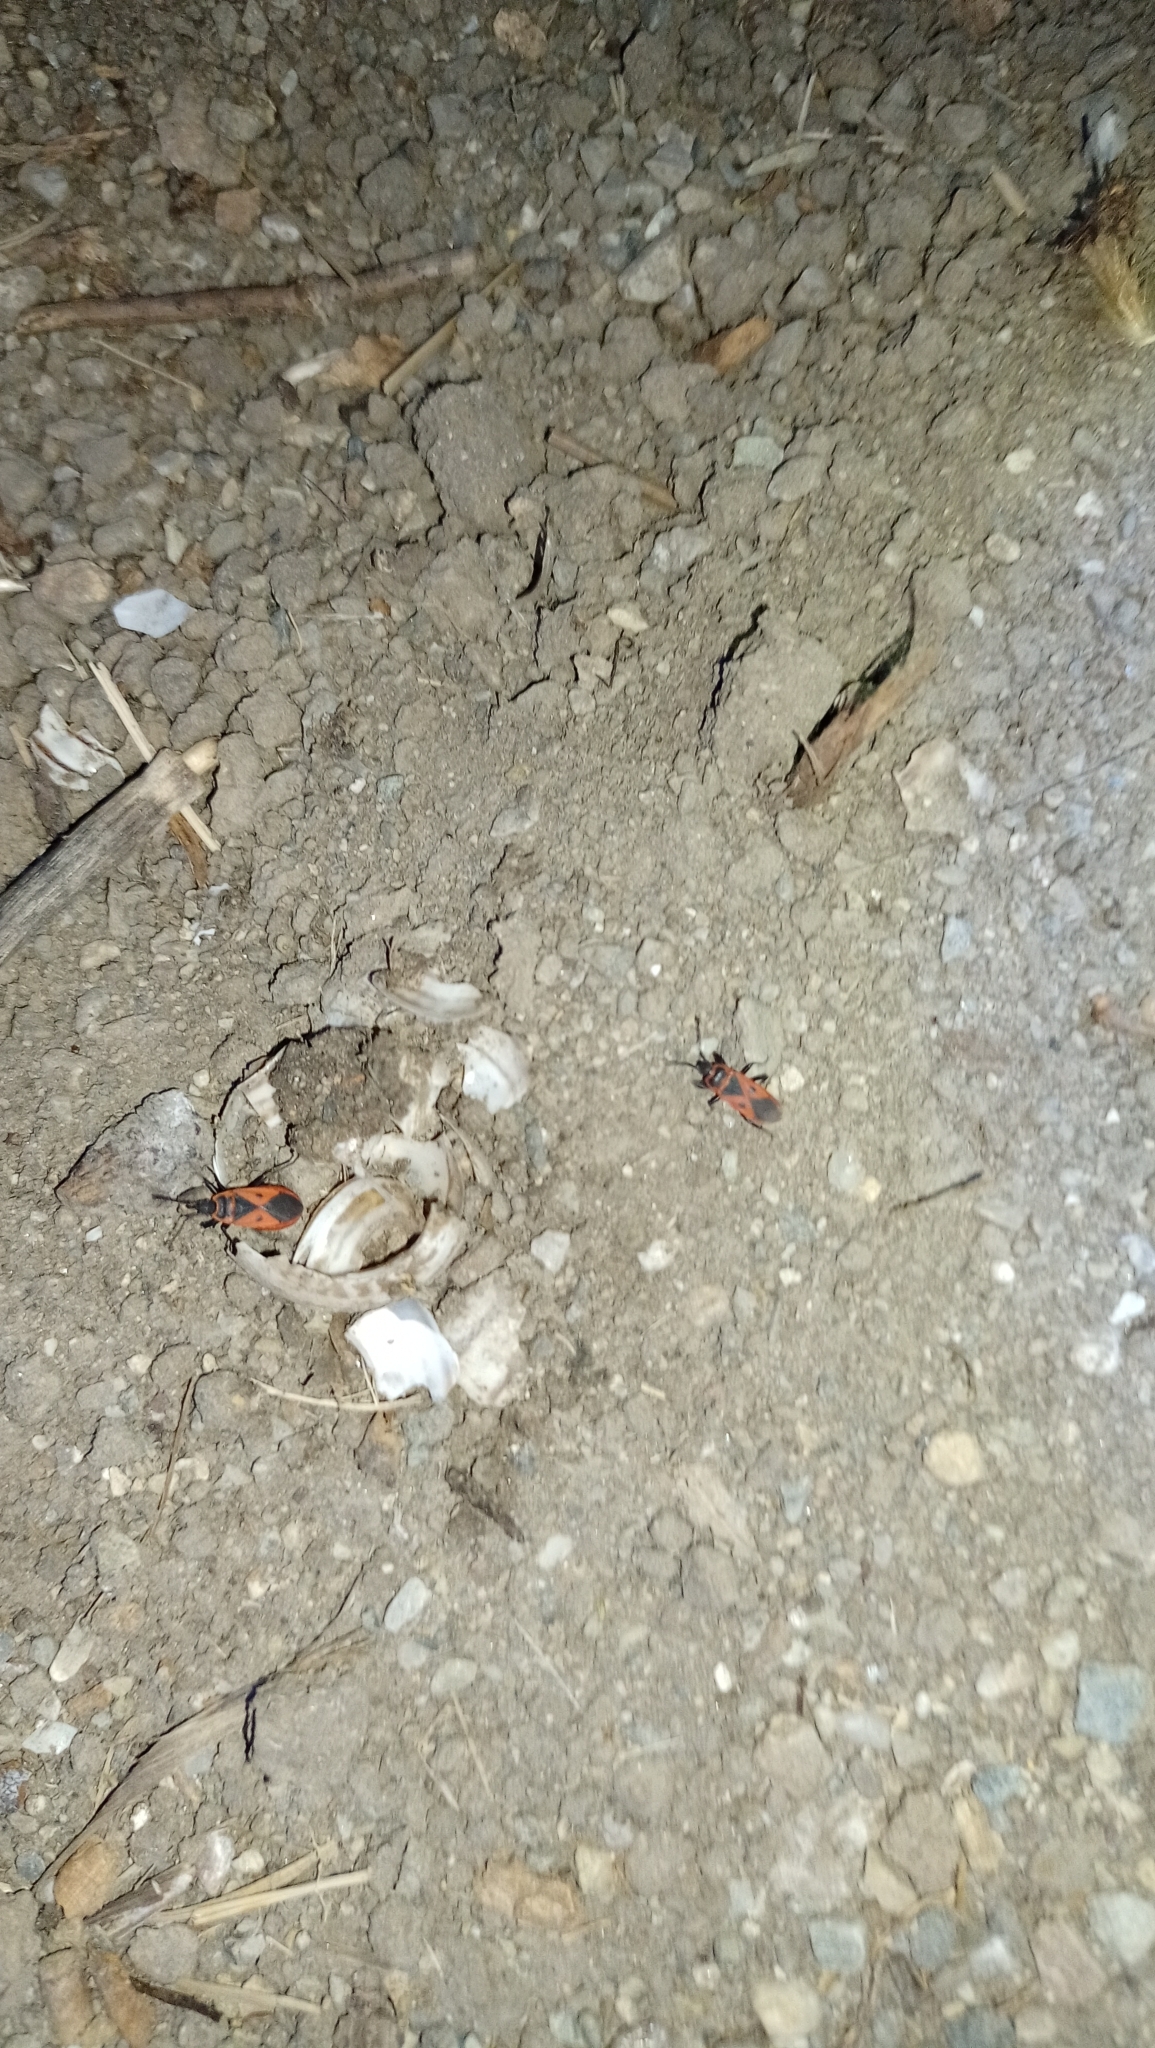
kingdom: Animalia
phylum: Arthropoda
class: Insecta
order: Hemiptera
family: Pyrrhocoridae
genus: Scantius
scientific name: Scantius aegyptius
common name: Red bug
